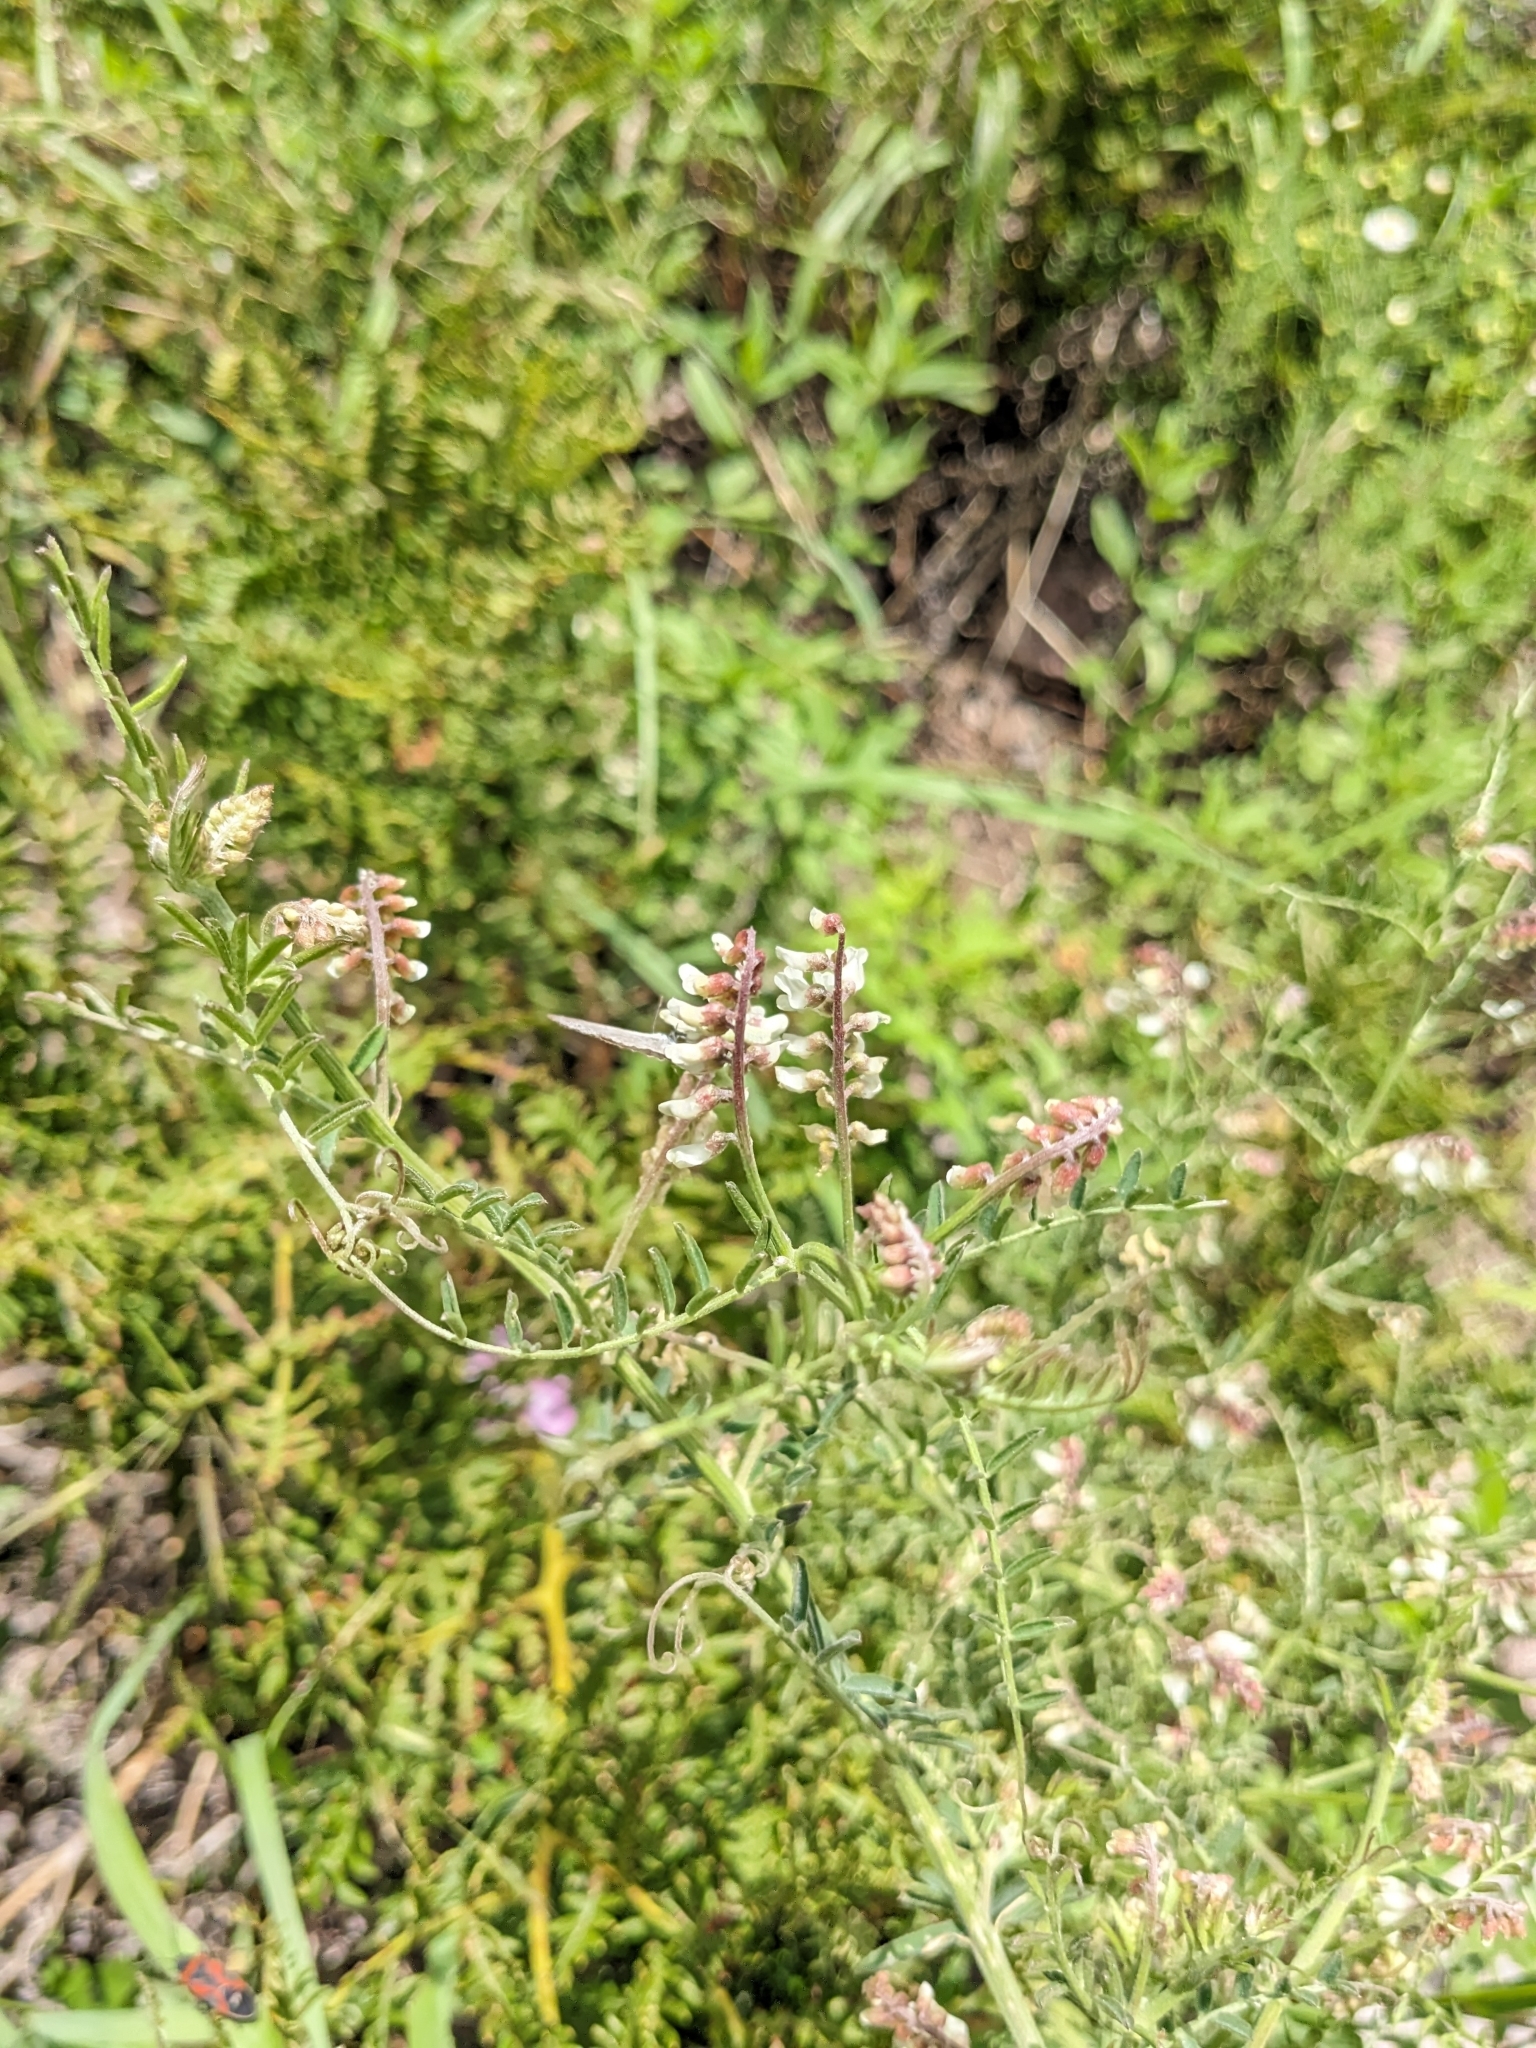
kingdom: Plantae
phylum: Tracheophyta
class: Magnoliopsida
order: Fabales
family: Fabaceae
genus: Vicia
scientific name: Vicia pulchella
